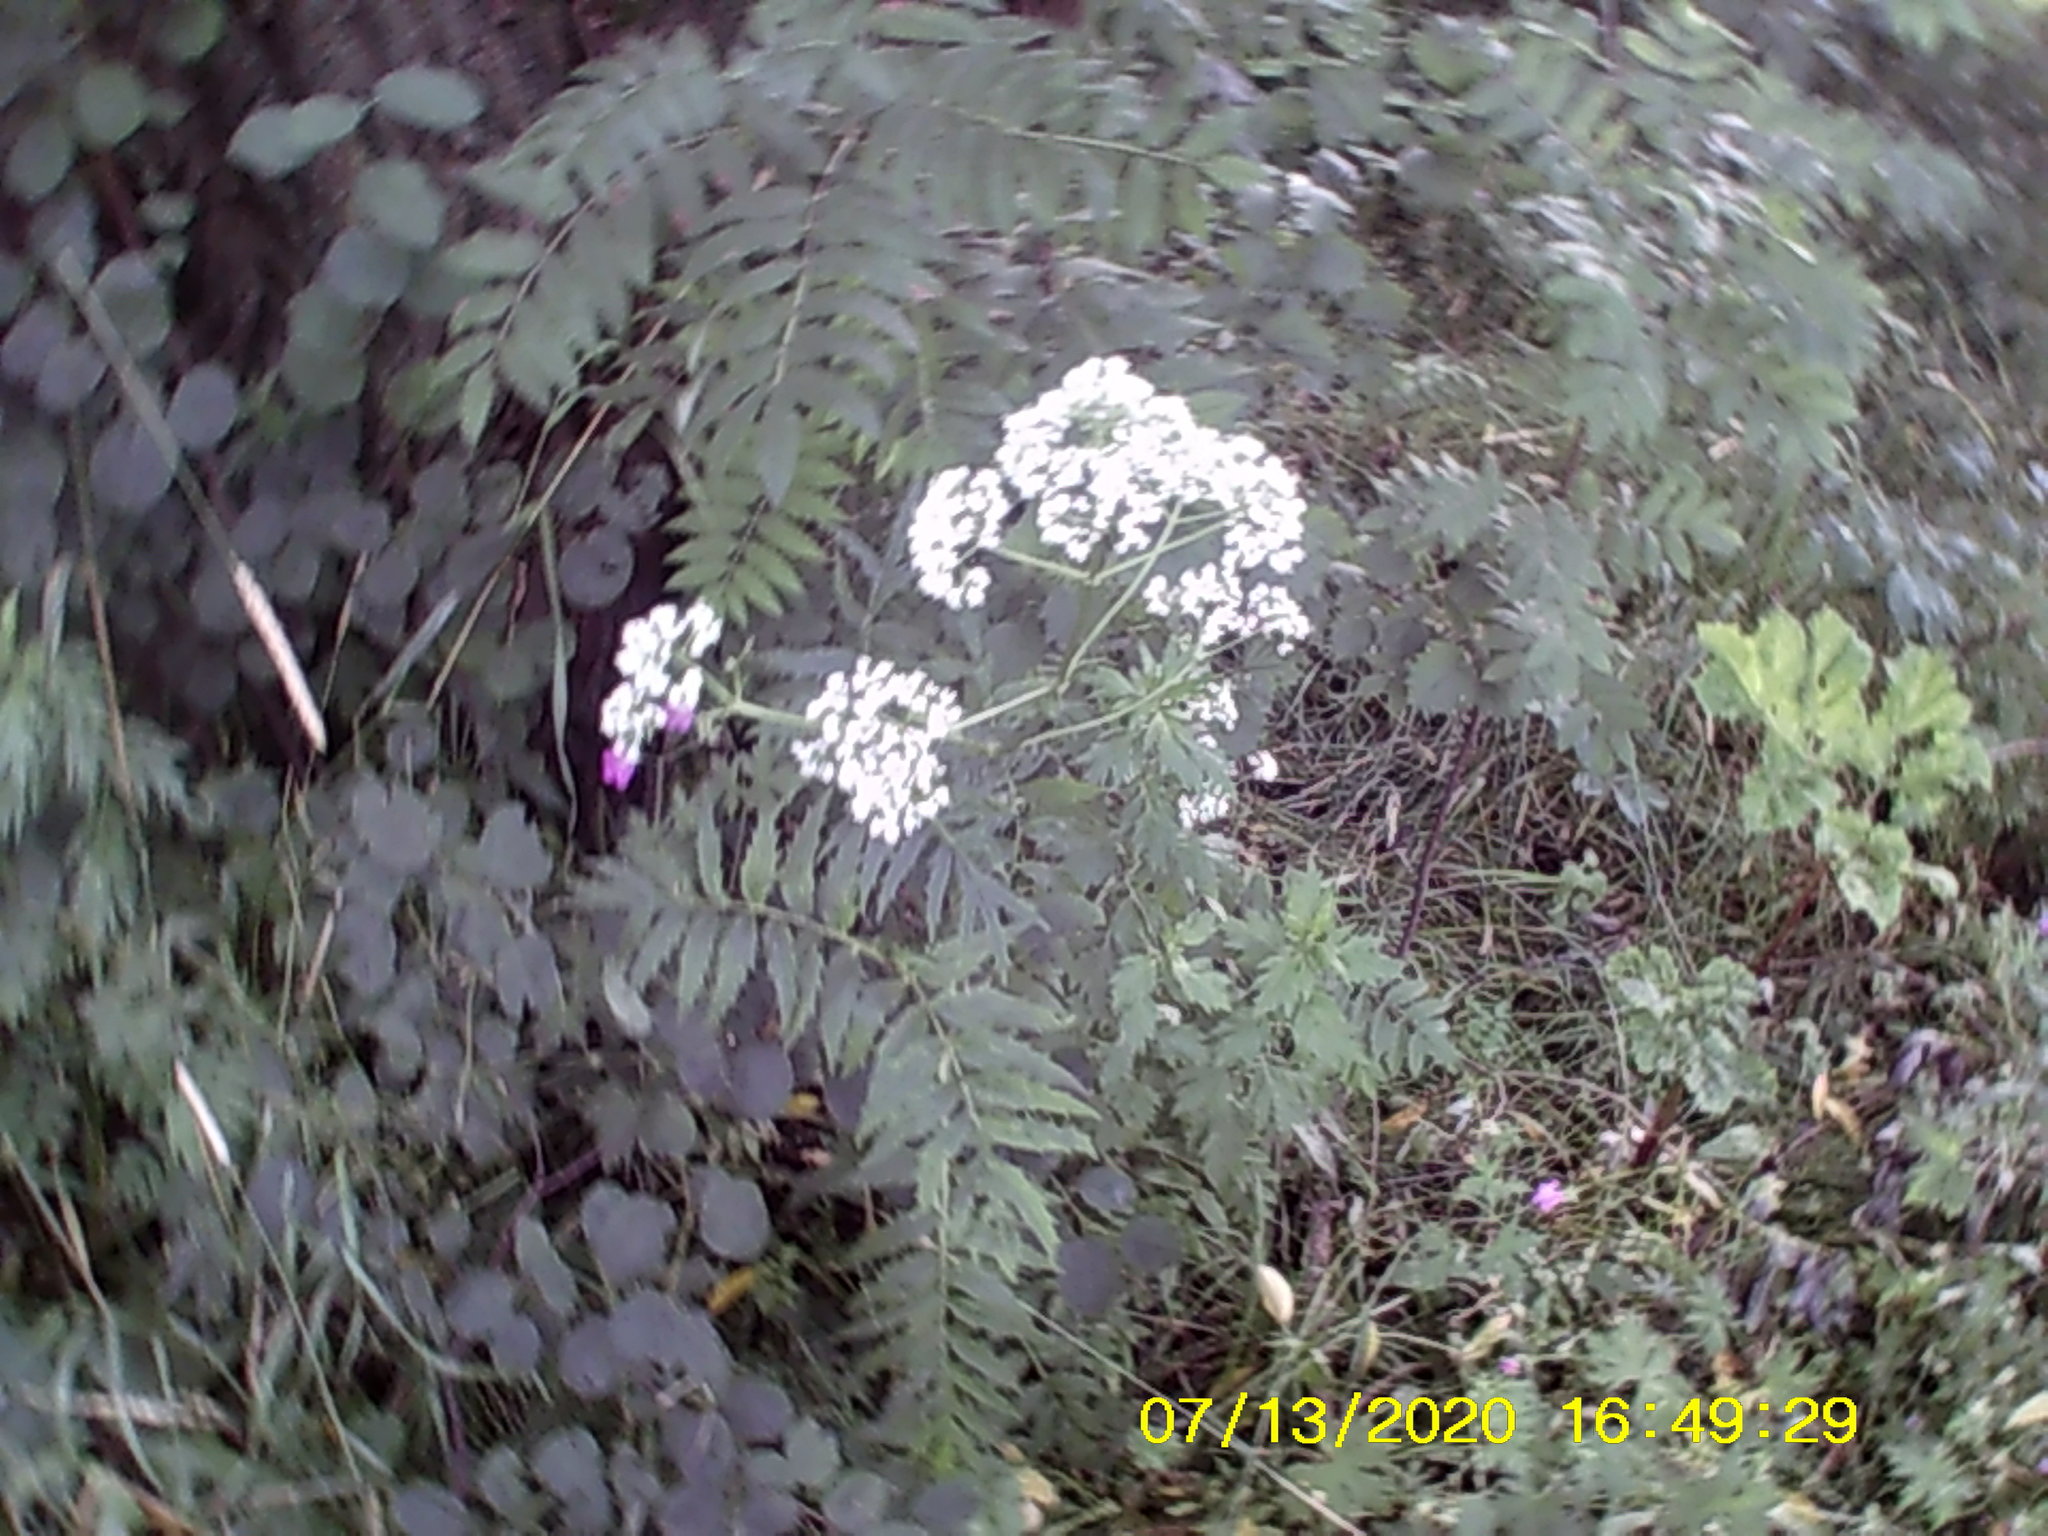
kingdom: Plantae
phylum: Tracheophyta
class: Magnoliopsida
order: Dipsacales
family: Caprifoliaceae
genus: Valeriana
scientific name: Valeriana officinalis
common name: Common valerian
